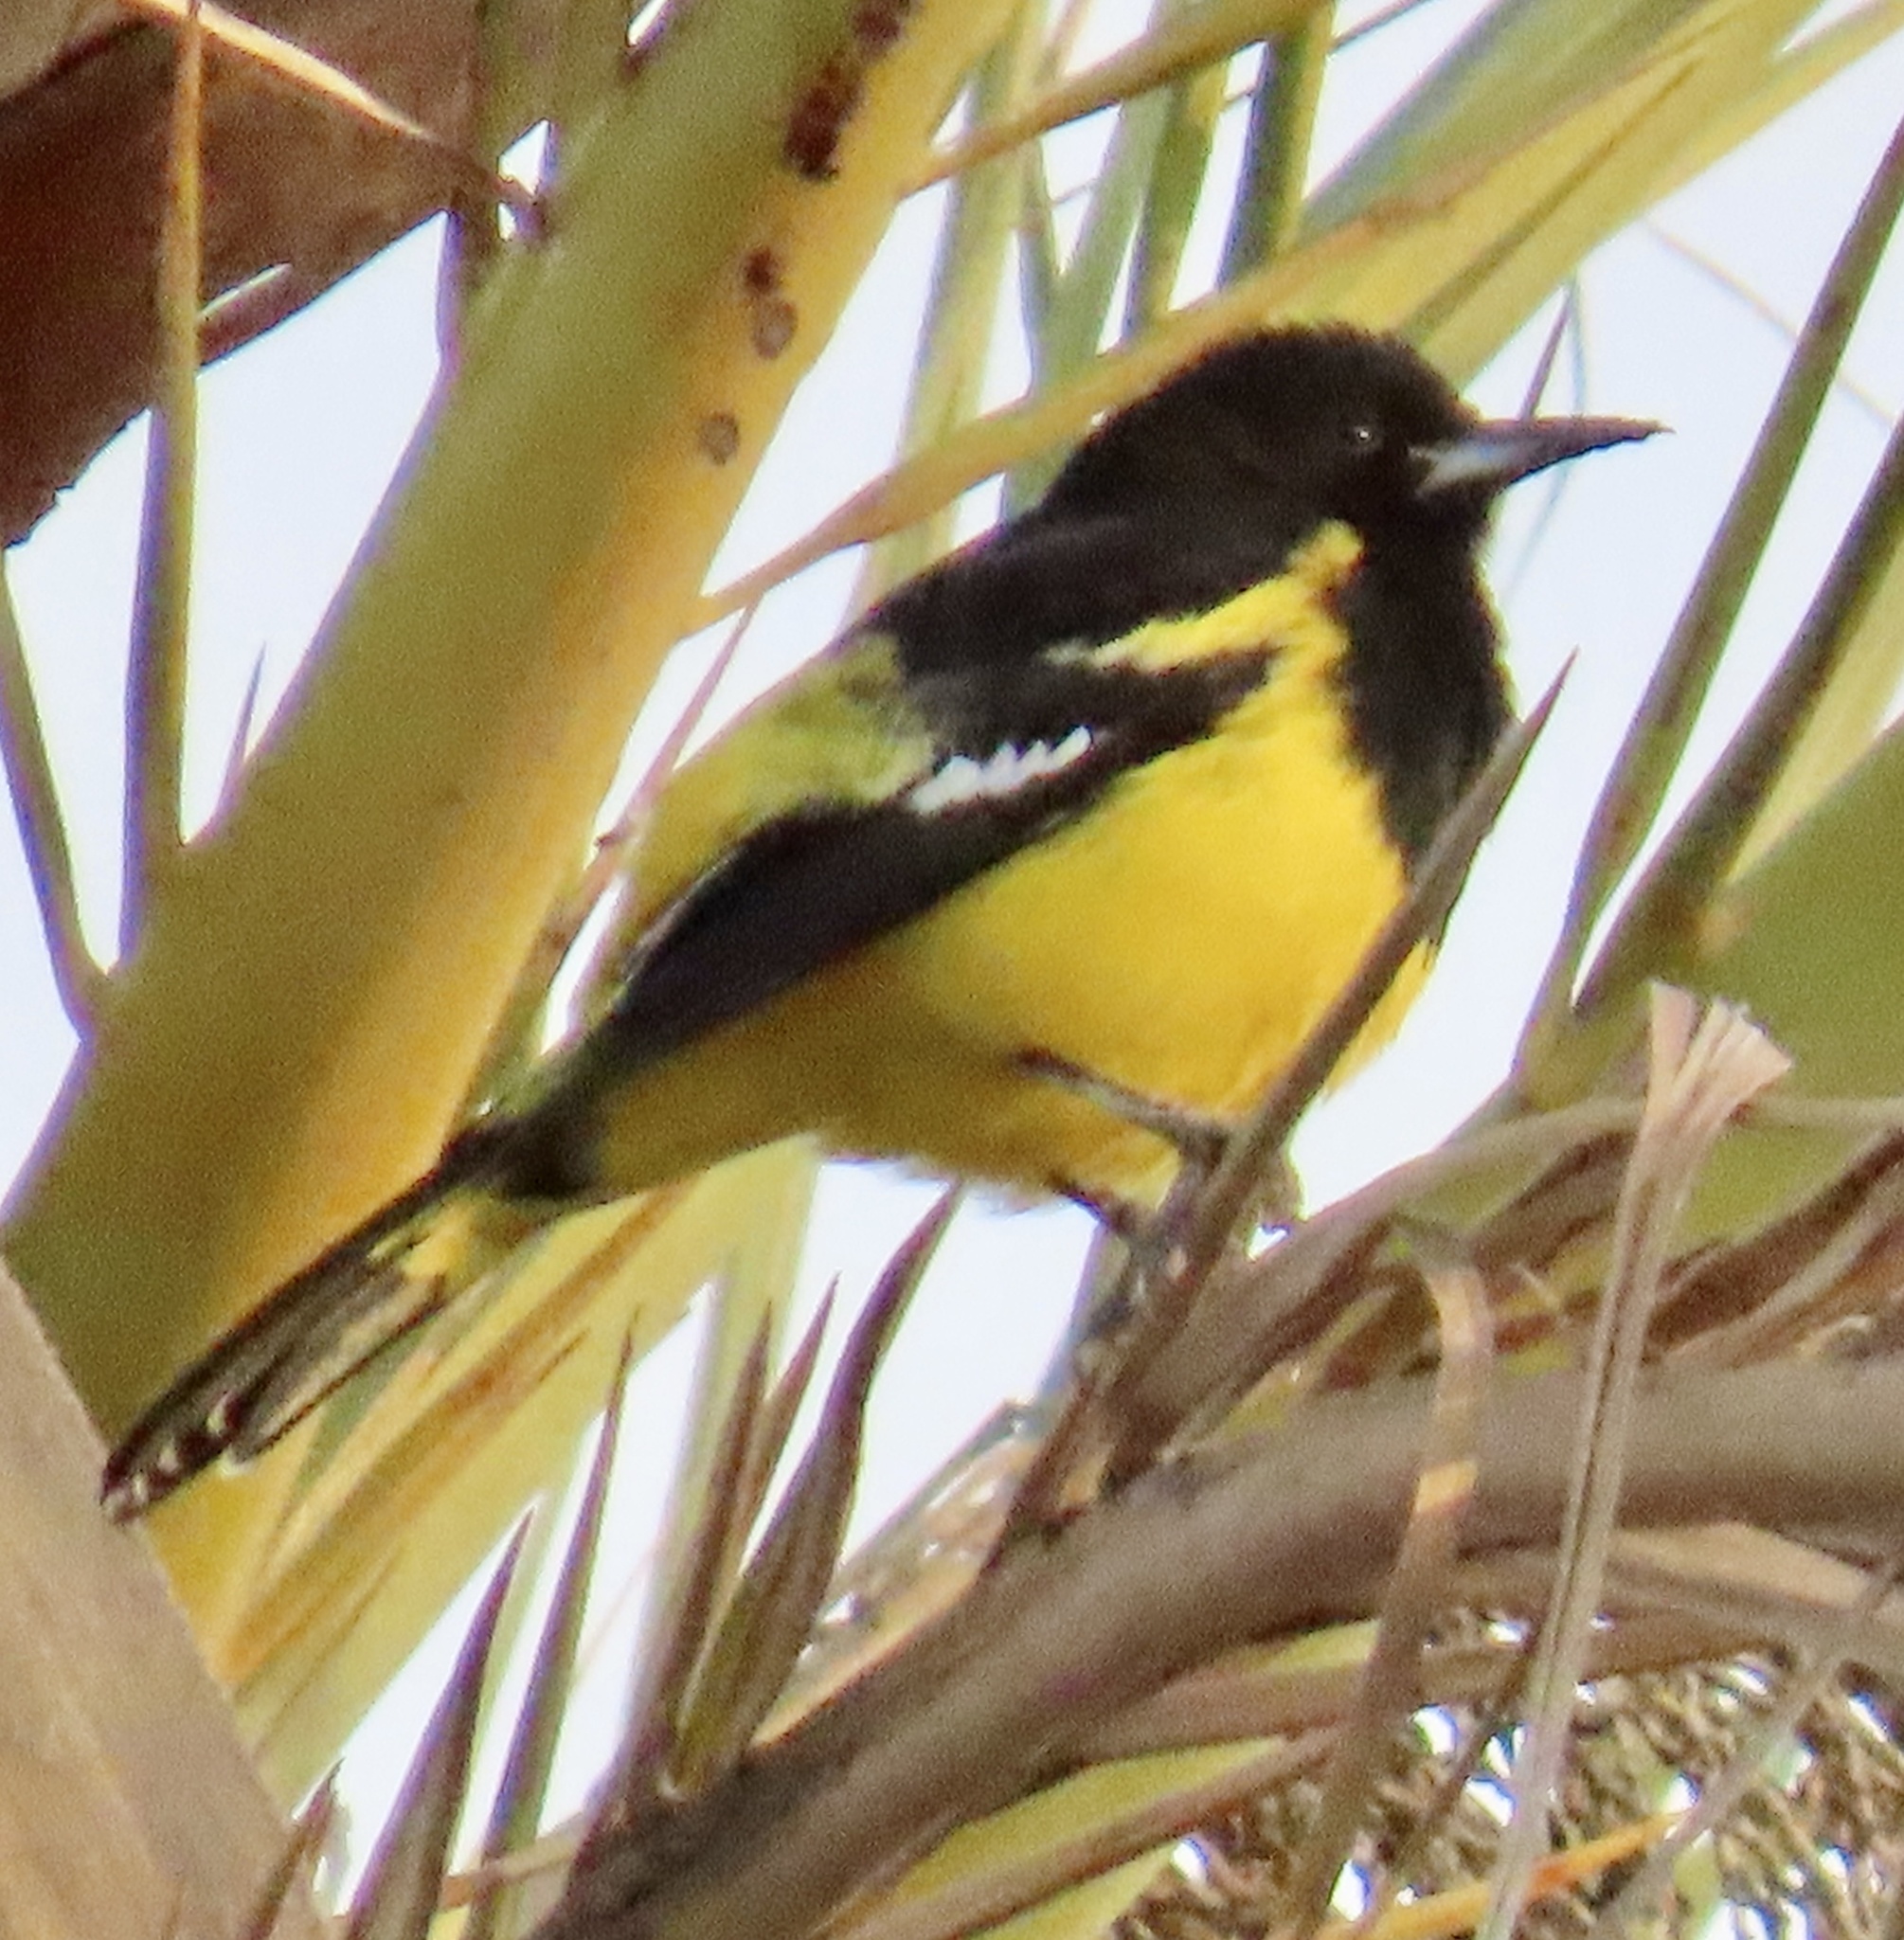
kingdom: Animalia
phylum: Chordata
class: Aves
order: Passeriformes
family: Icteridae
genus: Icterus
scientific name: Icterus parisorum
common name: Scott's oriole
